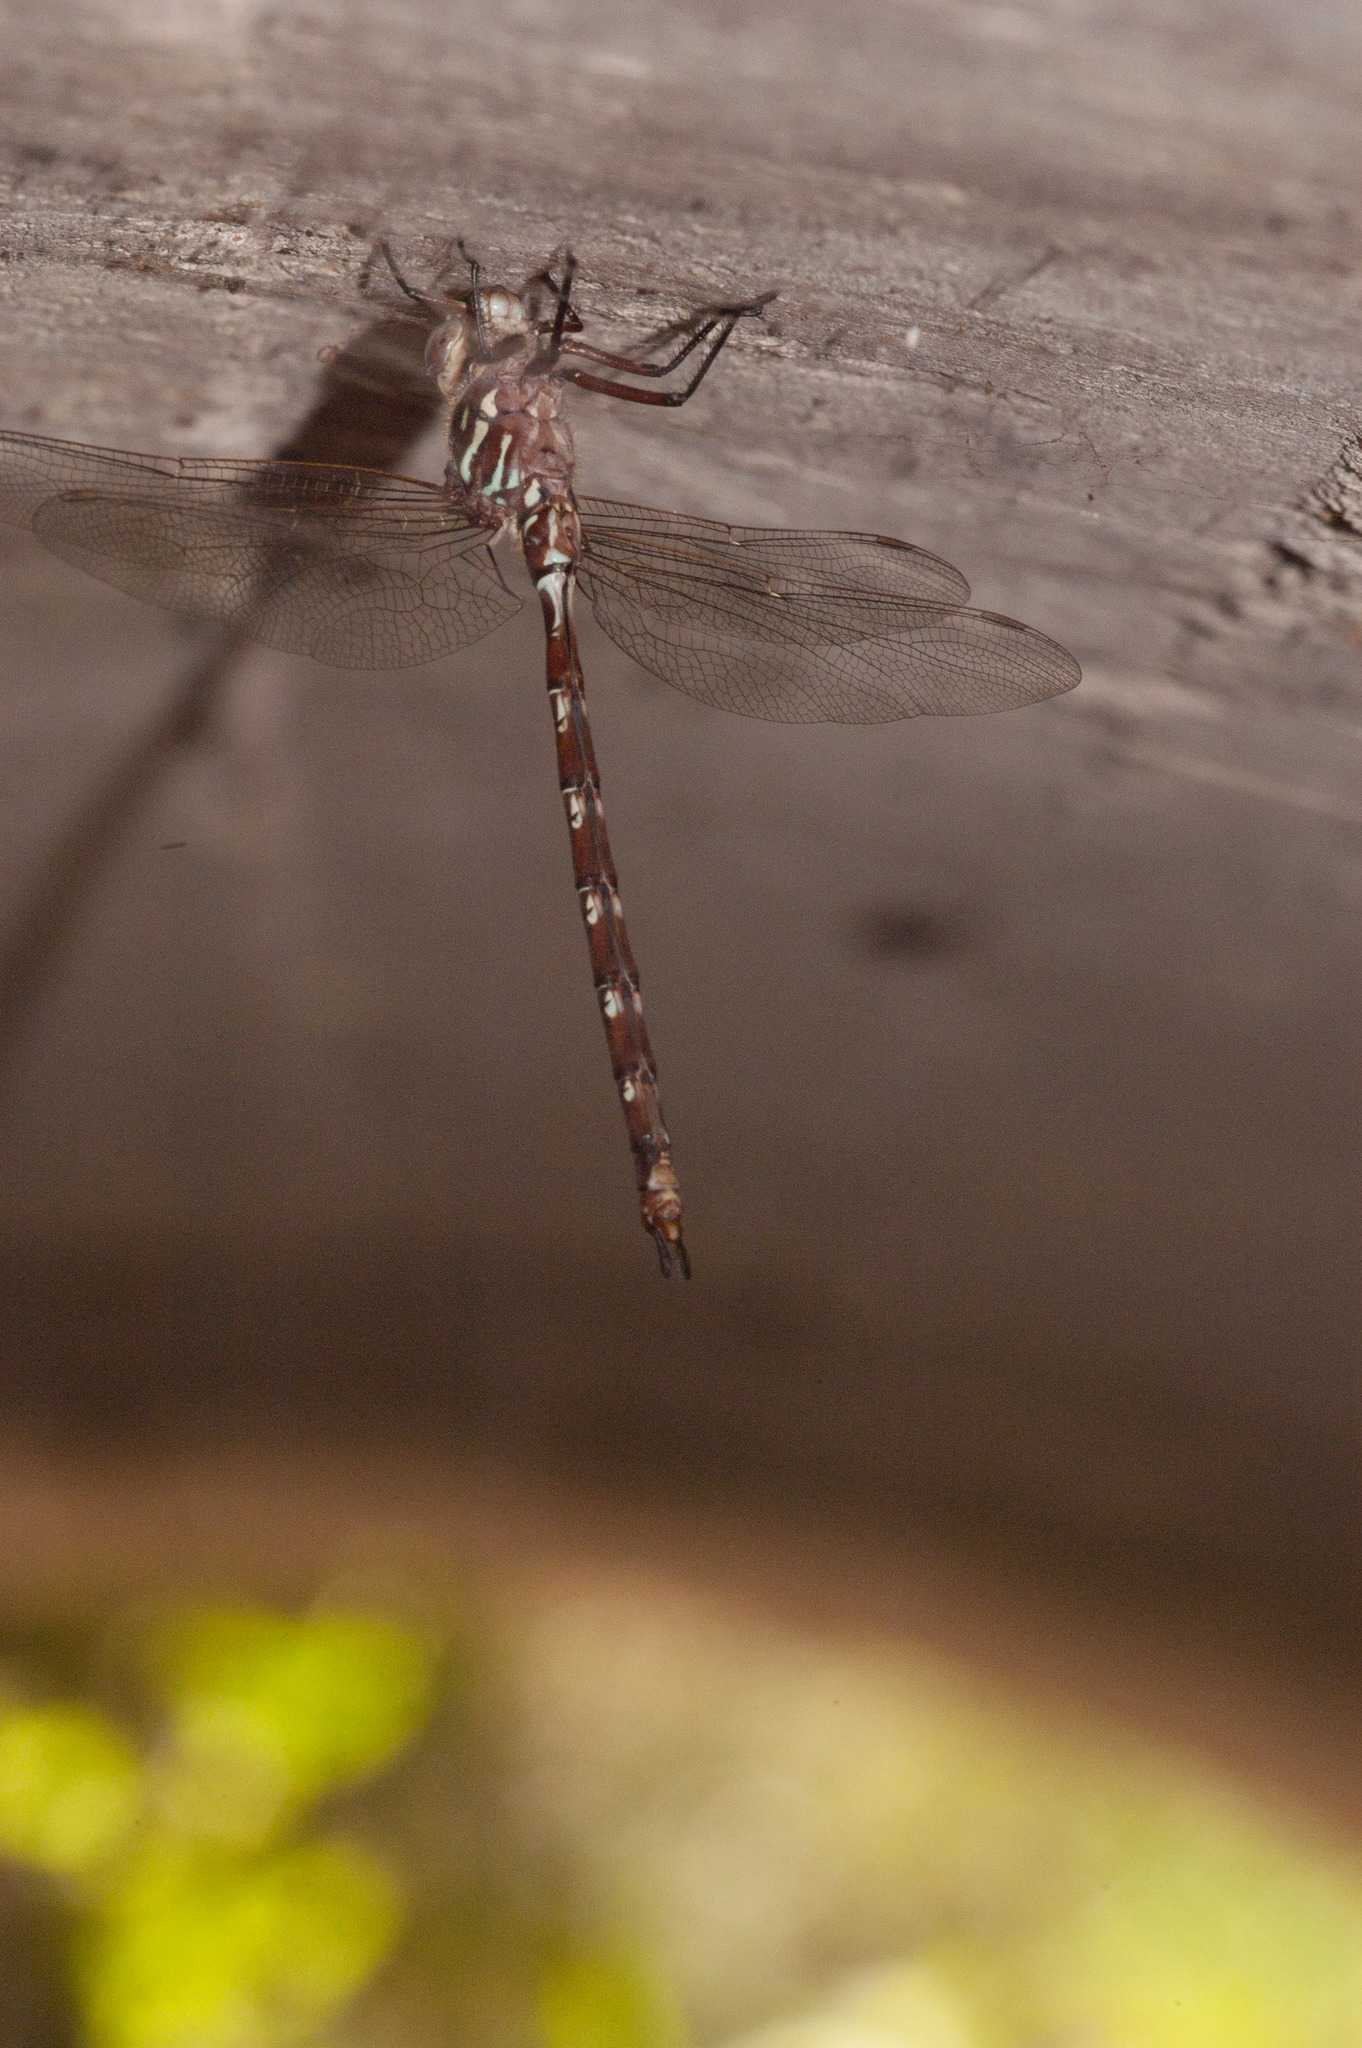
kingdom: Animalia
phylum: Arthropoda
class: Insecta
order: Odonata
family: Aeshnidae
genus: Austroaeschna
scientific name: Austroaeschna unicornis
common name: Unicorn darner
